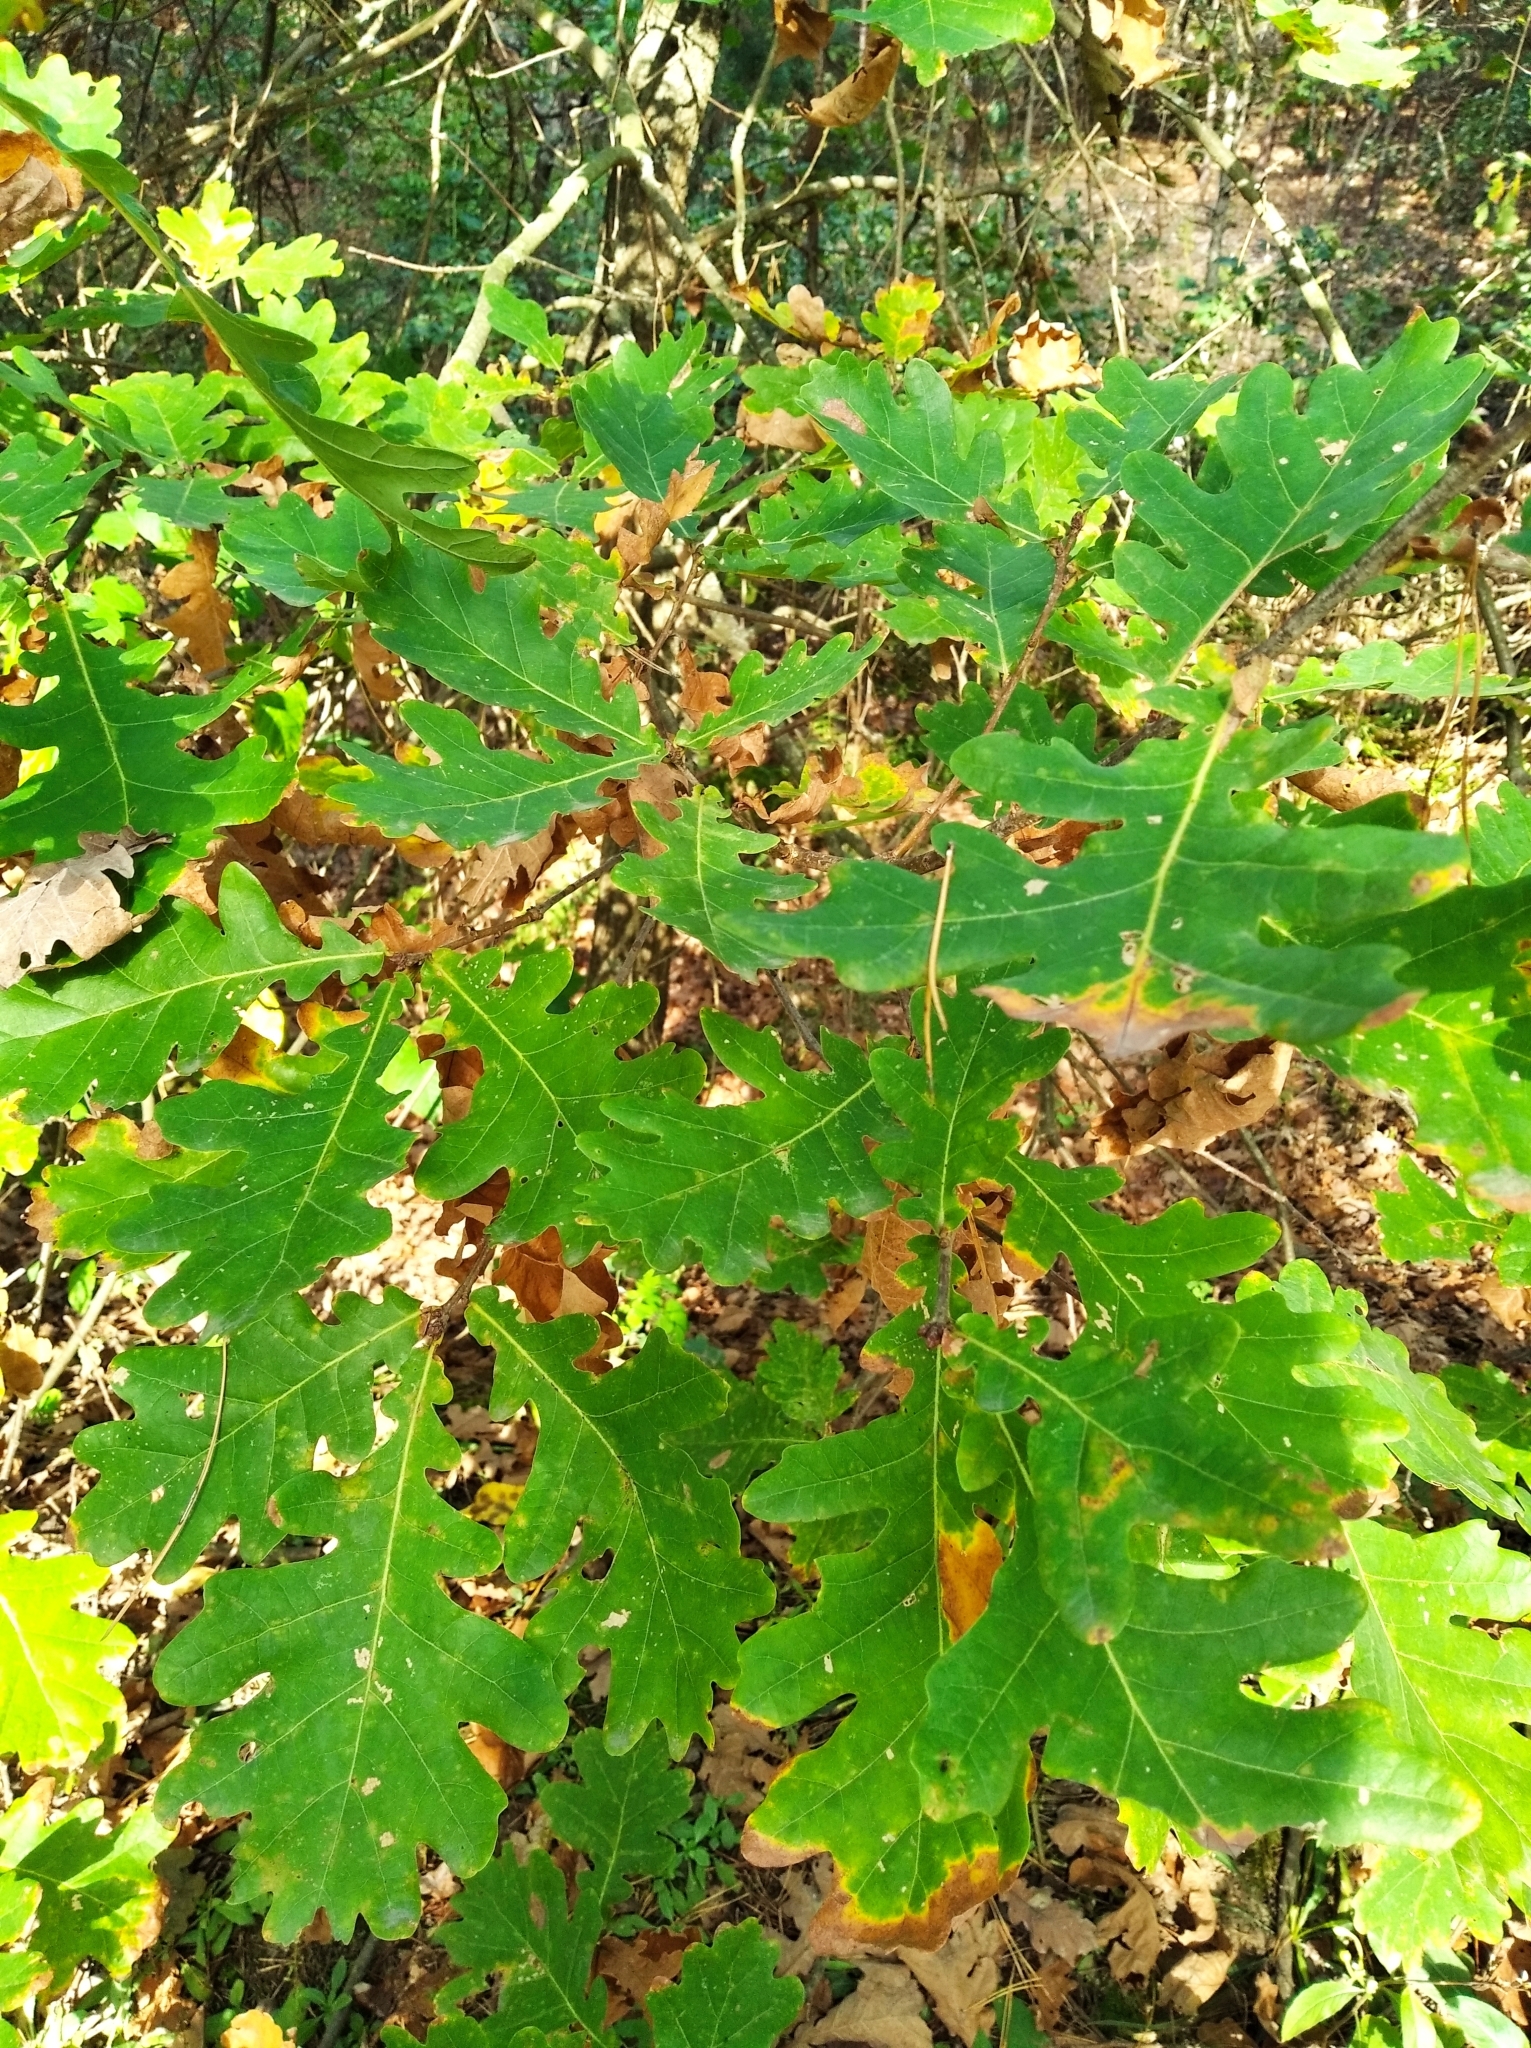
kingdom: Plantae
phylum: Tracheophyta
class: Magnoliopsida
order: Fagales
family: Fagaceae
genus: Quercus
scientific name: Quercus robur
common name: Pedunculate oak
